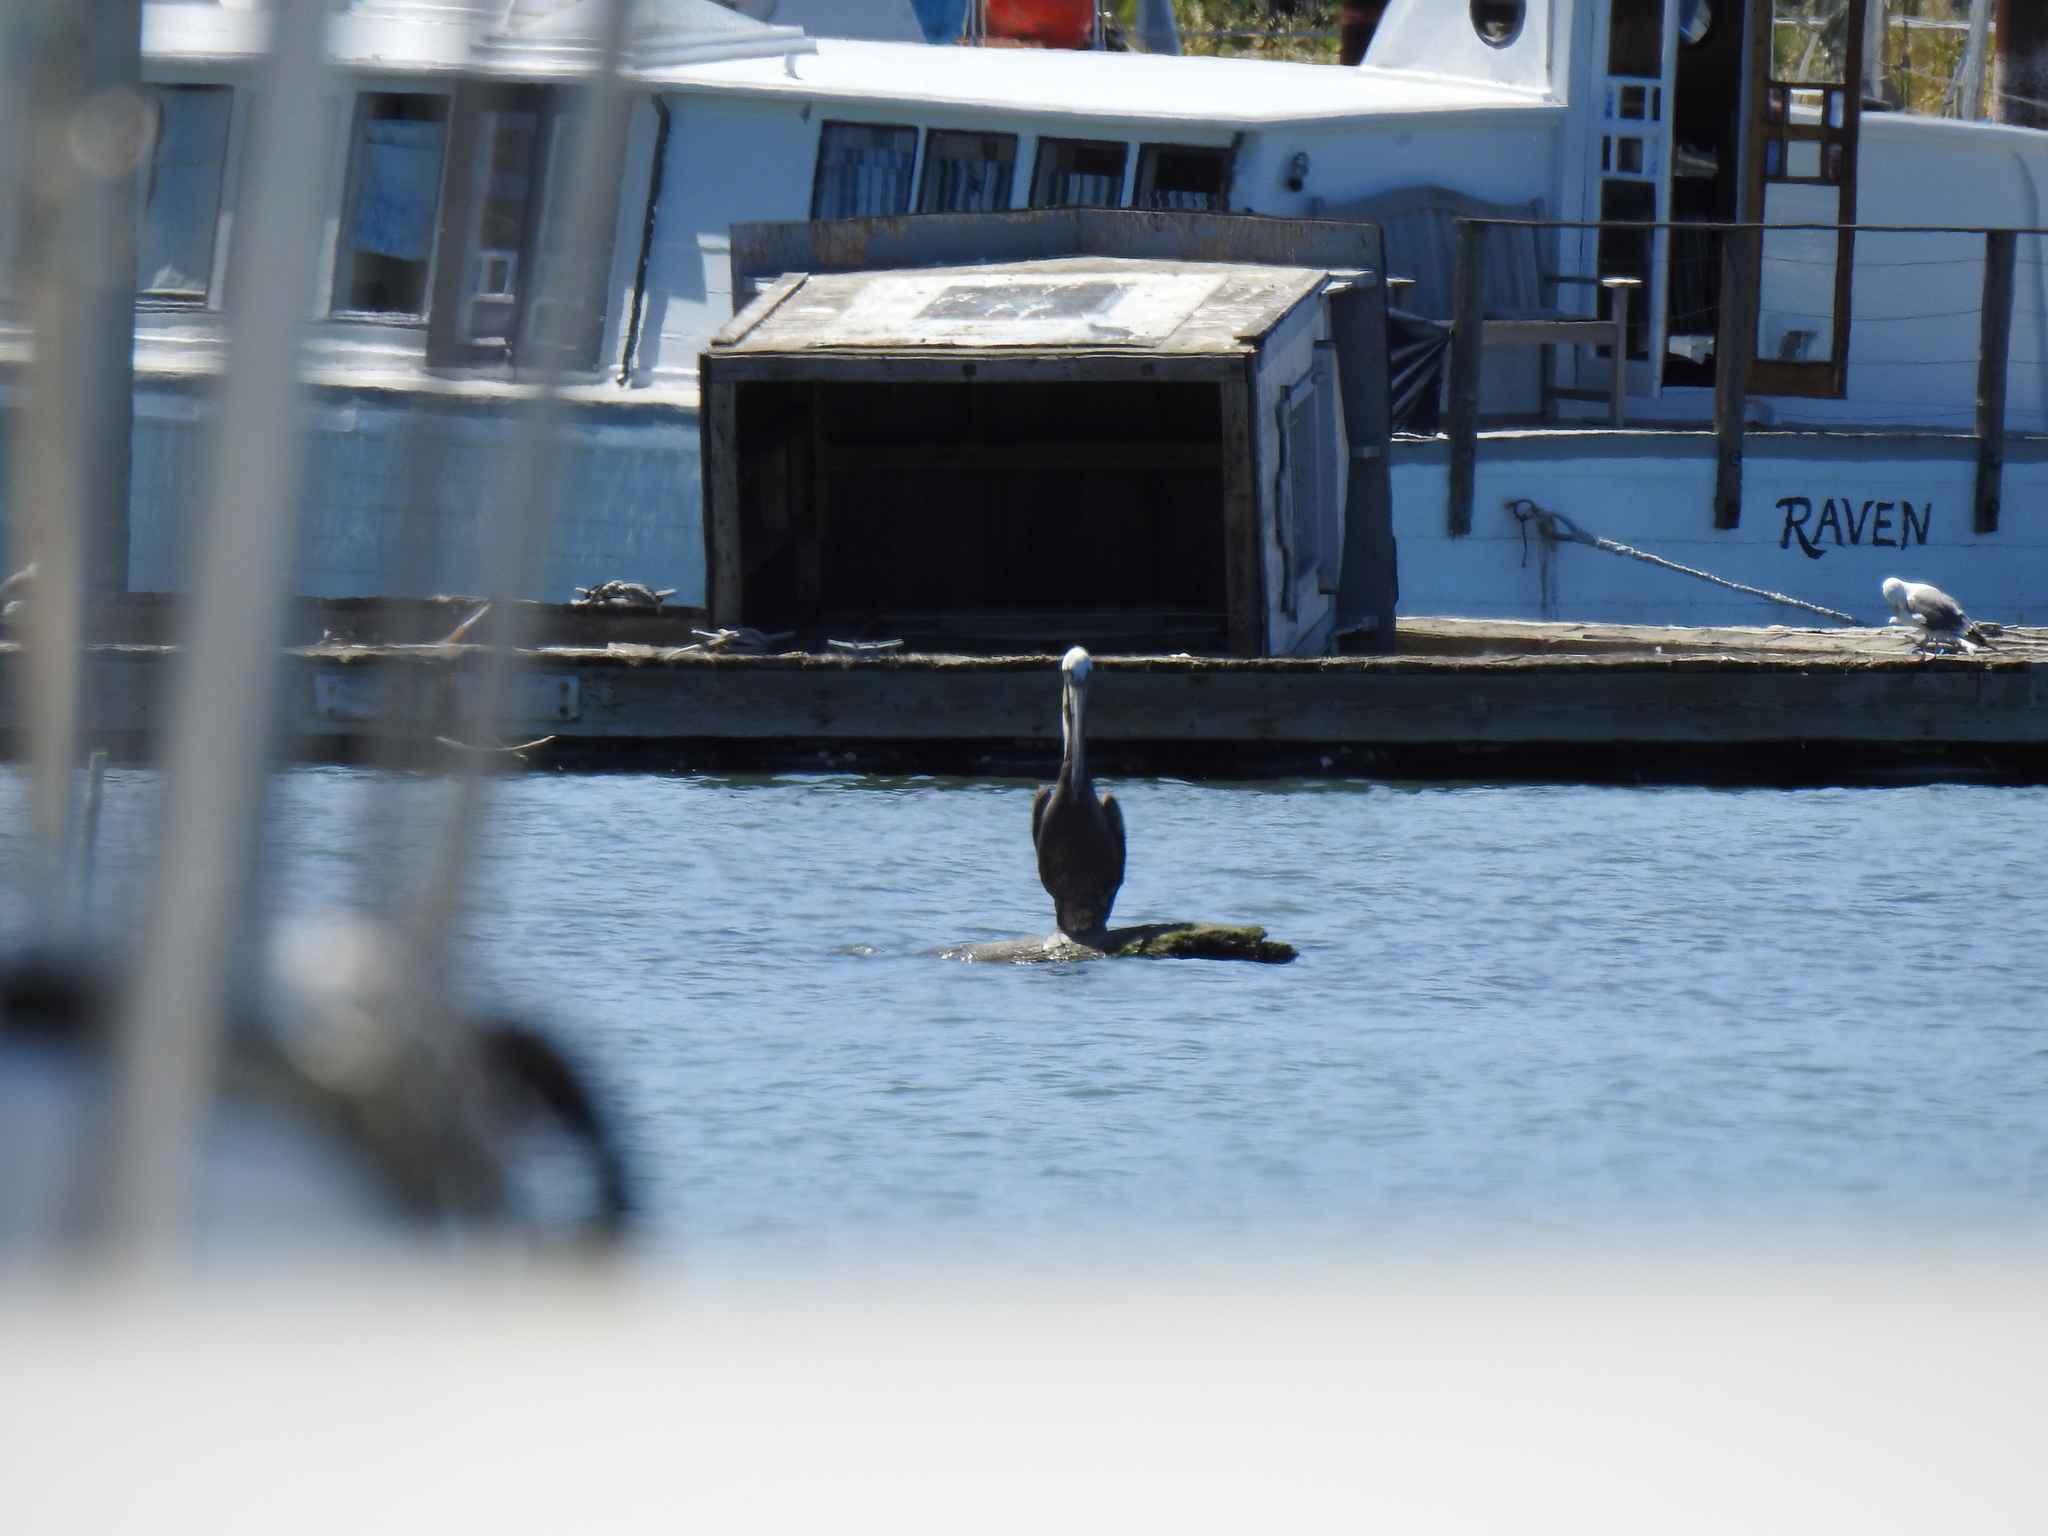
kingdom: Animalia
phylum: Chordata
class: Aves
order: Pelecaniformes
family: Pelecanidae
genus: Pelecanus
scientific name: Pelecanus occidentalis
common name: Brown pelican
